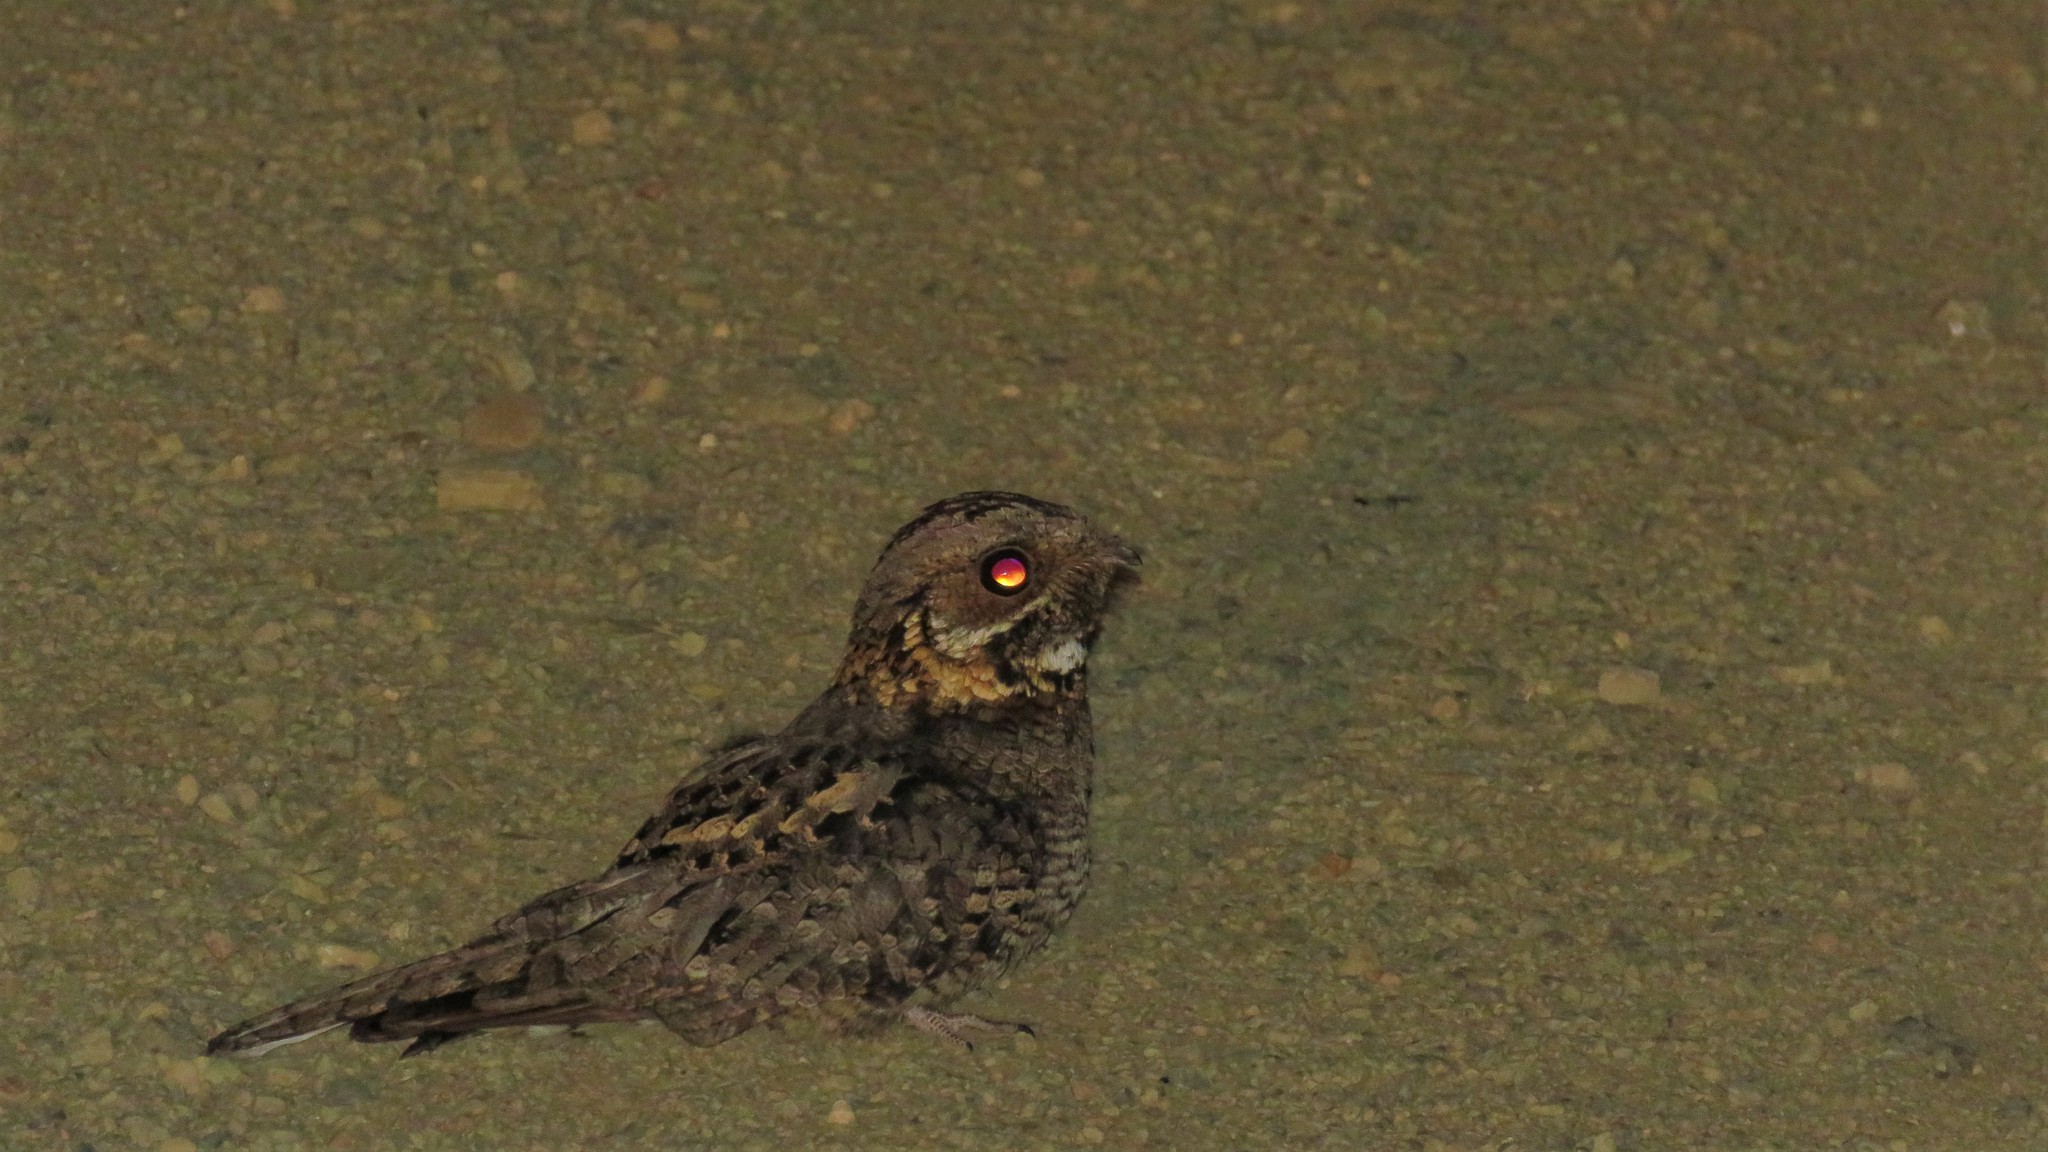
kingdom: Animalia
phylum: Chordata
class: Aves
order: Caprimulgiformes
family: Caprimulgidae
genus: Caprimulgus
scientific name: Caprimulgus pectoralis
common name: Fiery-necked nightjar
